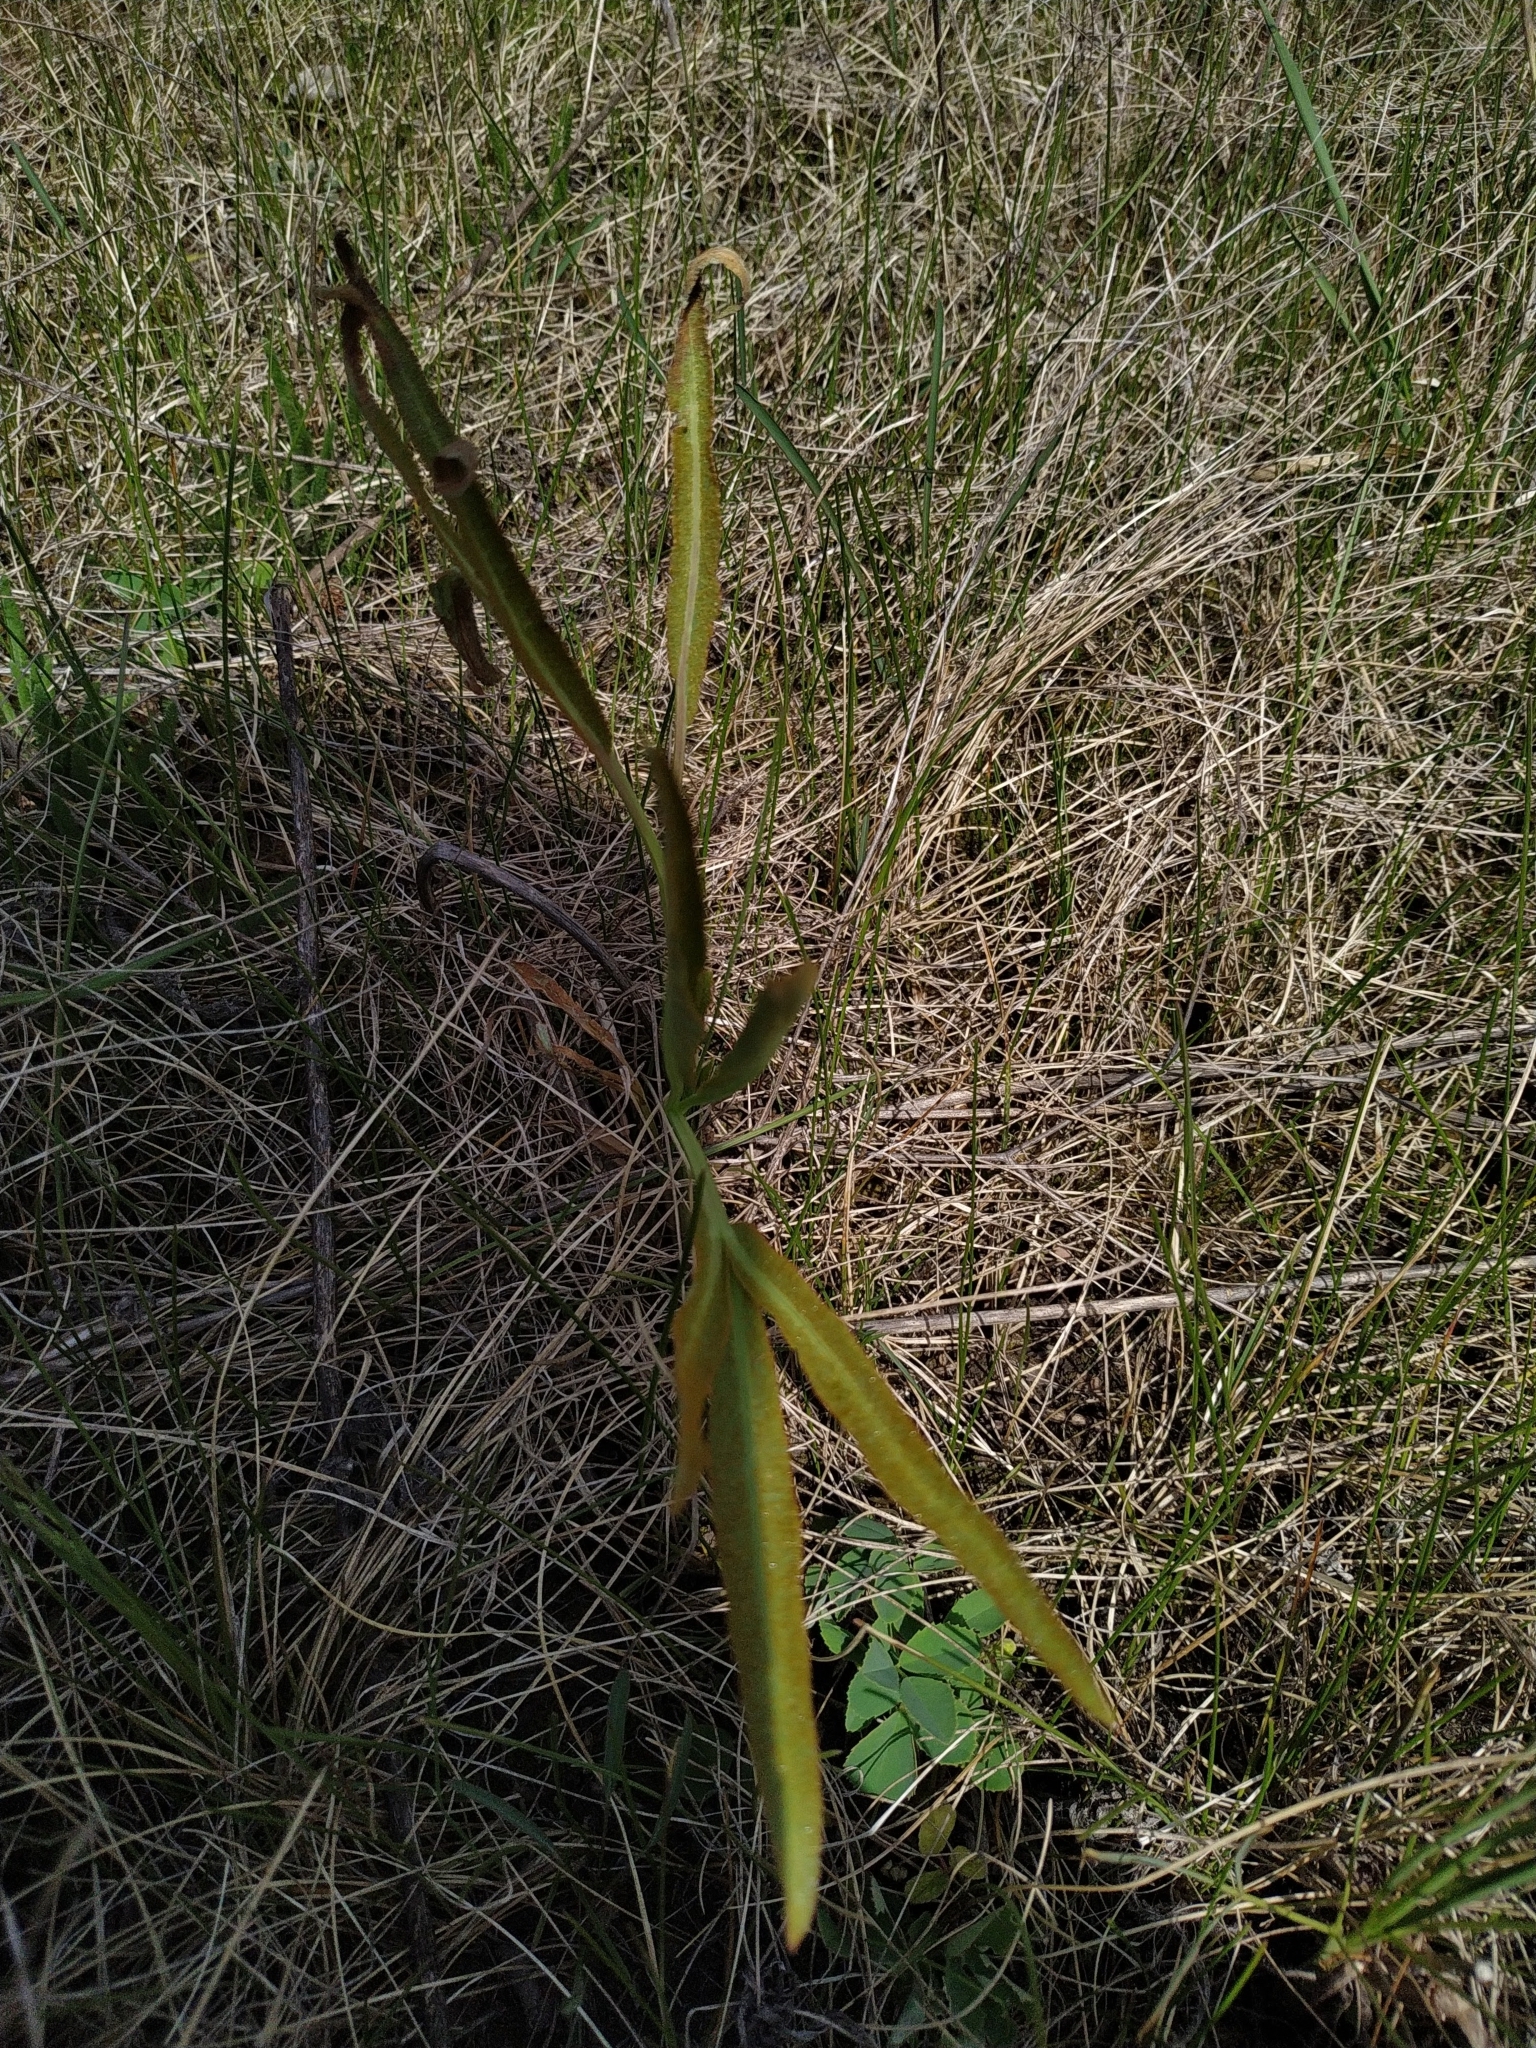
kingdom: Plantae
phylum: Tracheophyta
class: Magnoliopsida
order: Apiales
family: Apiaceae
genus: Falcaria
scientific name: Falcaria vulgaris
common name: Longleaf
